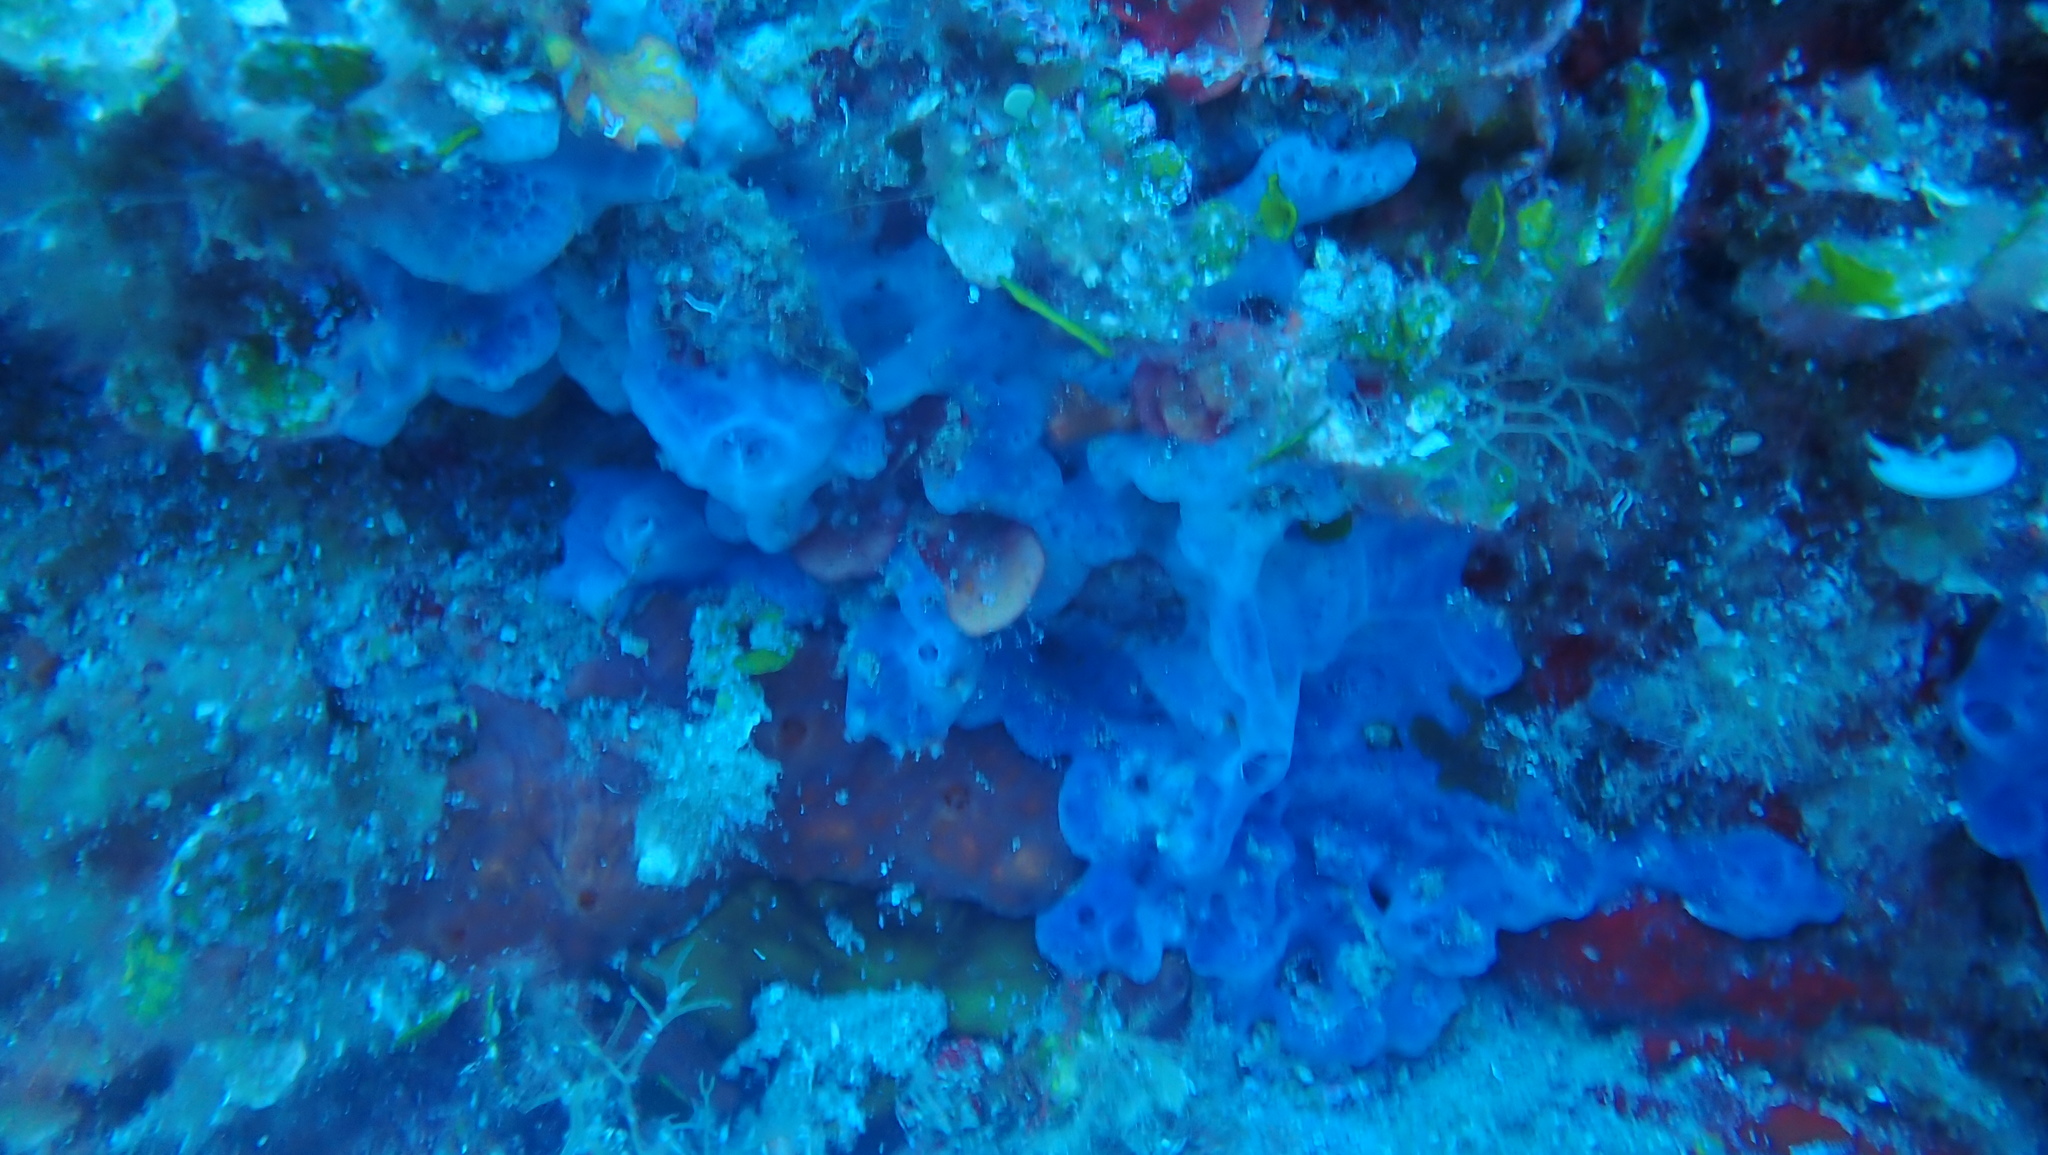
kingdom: Animalia
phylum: Porifera
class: Demospongiae
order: Poecilosclerida
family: Hymedesmiidae
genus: Phorbas
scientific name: Phorbas tenacior
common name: Bluish encrusting sponge
